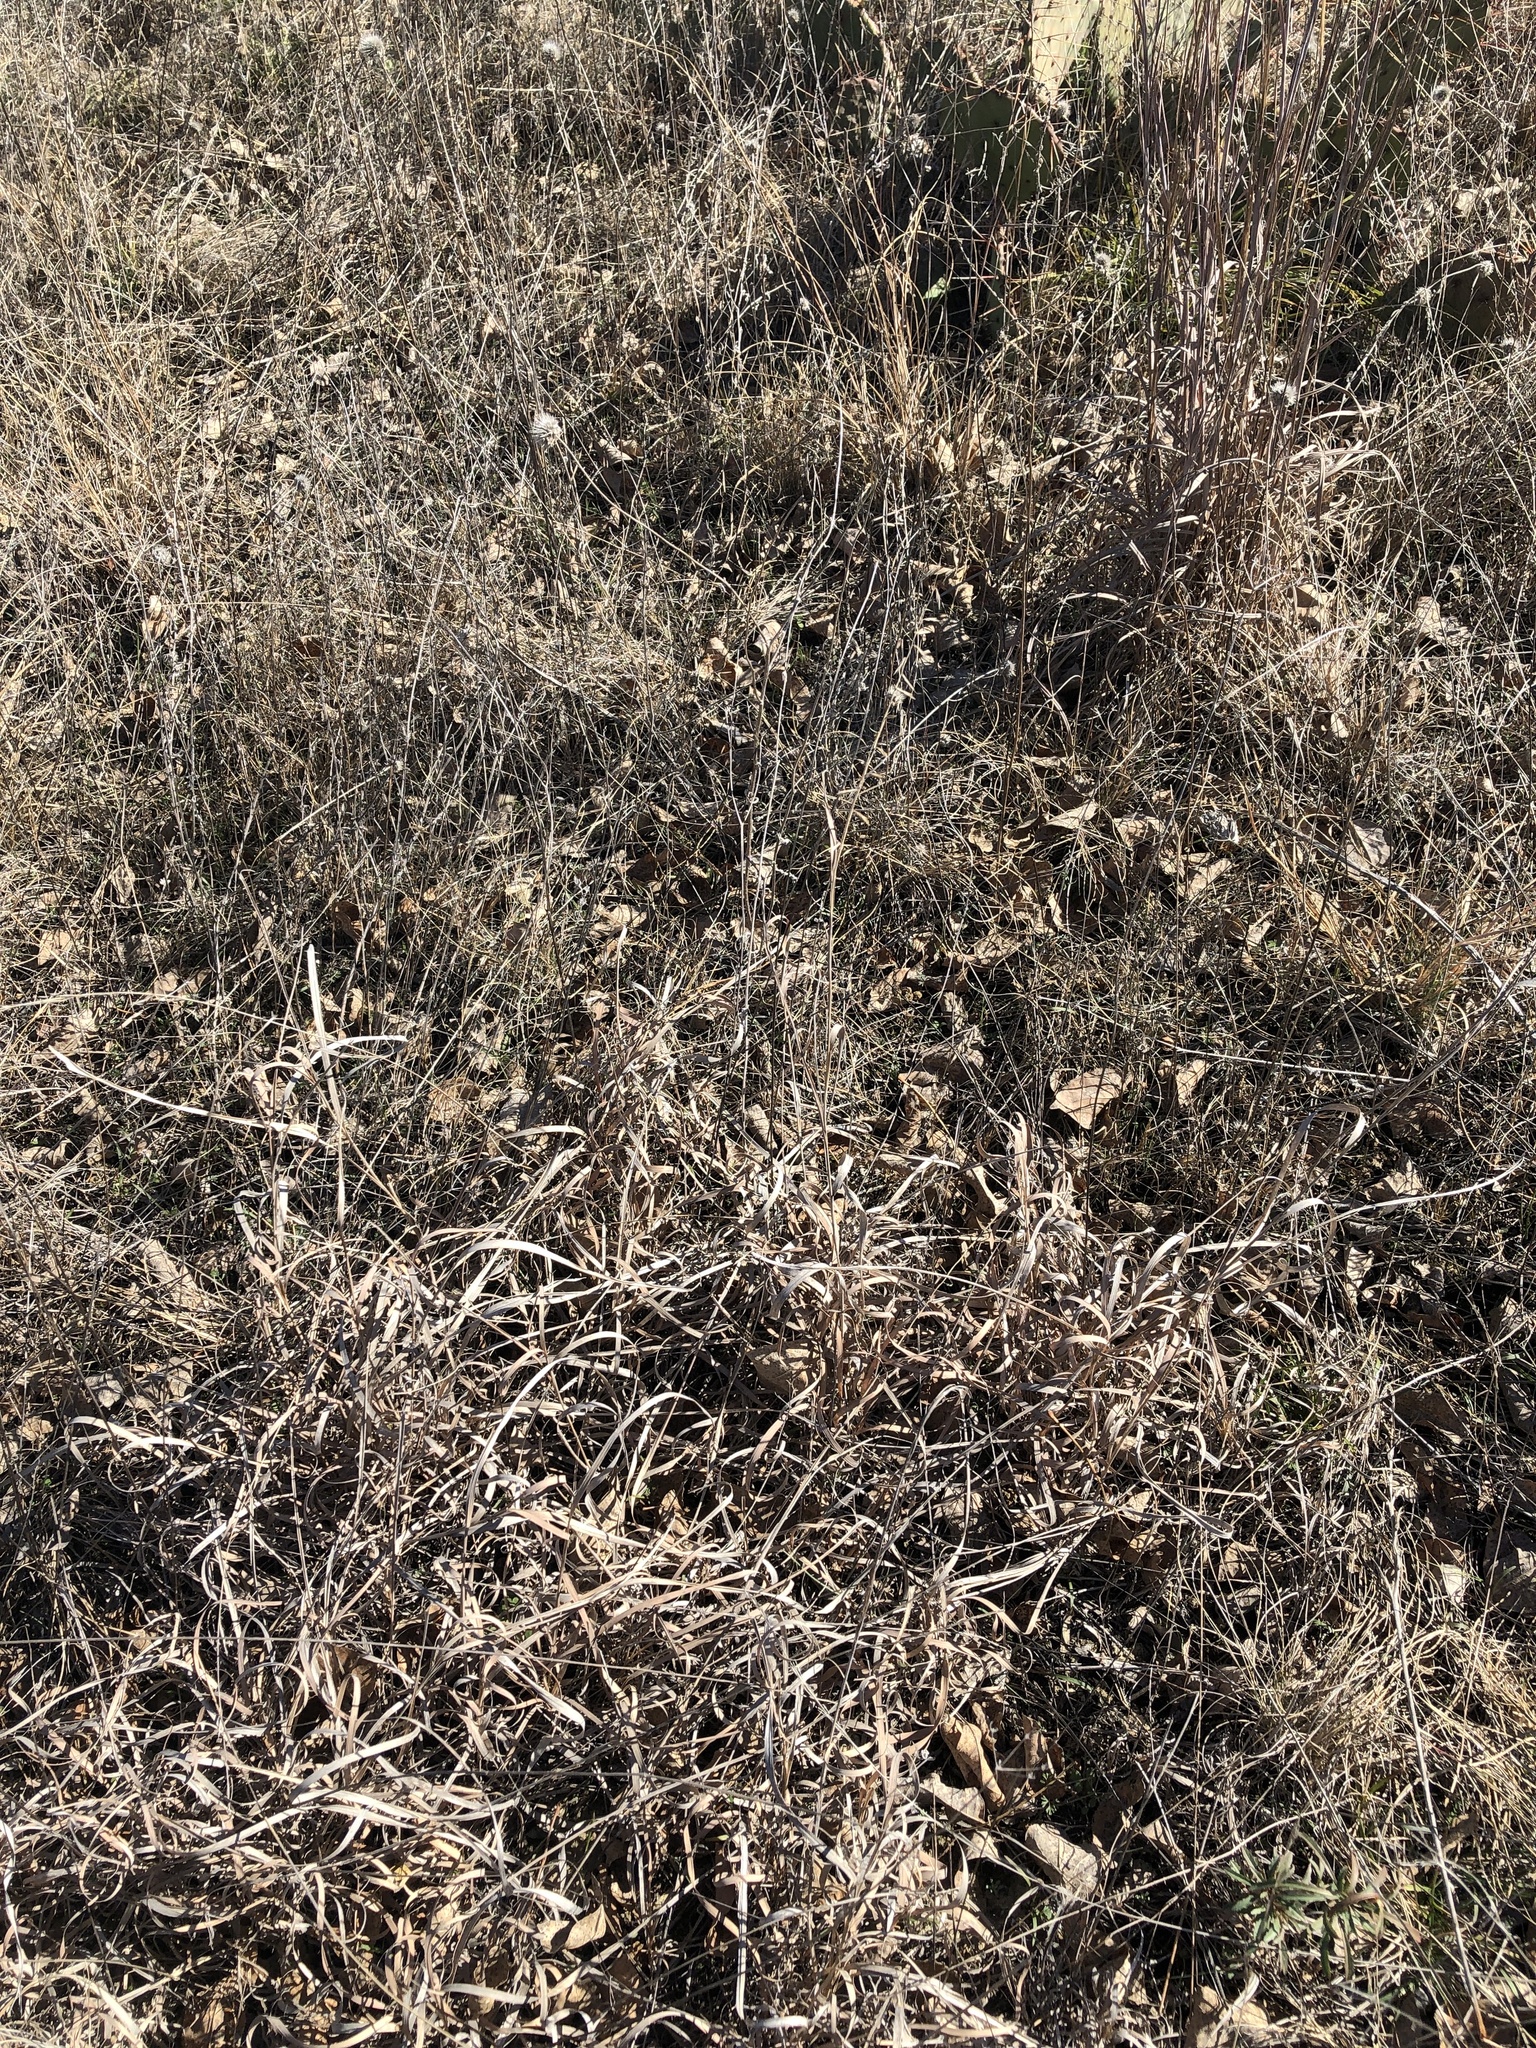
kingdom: Plantae
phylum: Tracheophyta
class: Liliopsida
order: Poales
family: Poaceae
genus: Bouteloua
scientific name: Bouteloua curtipendula
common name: Side-oats grama
